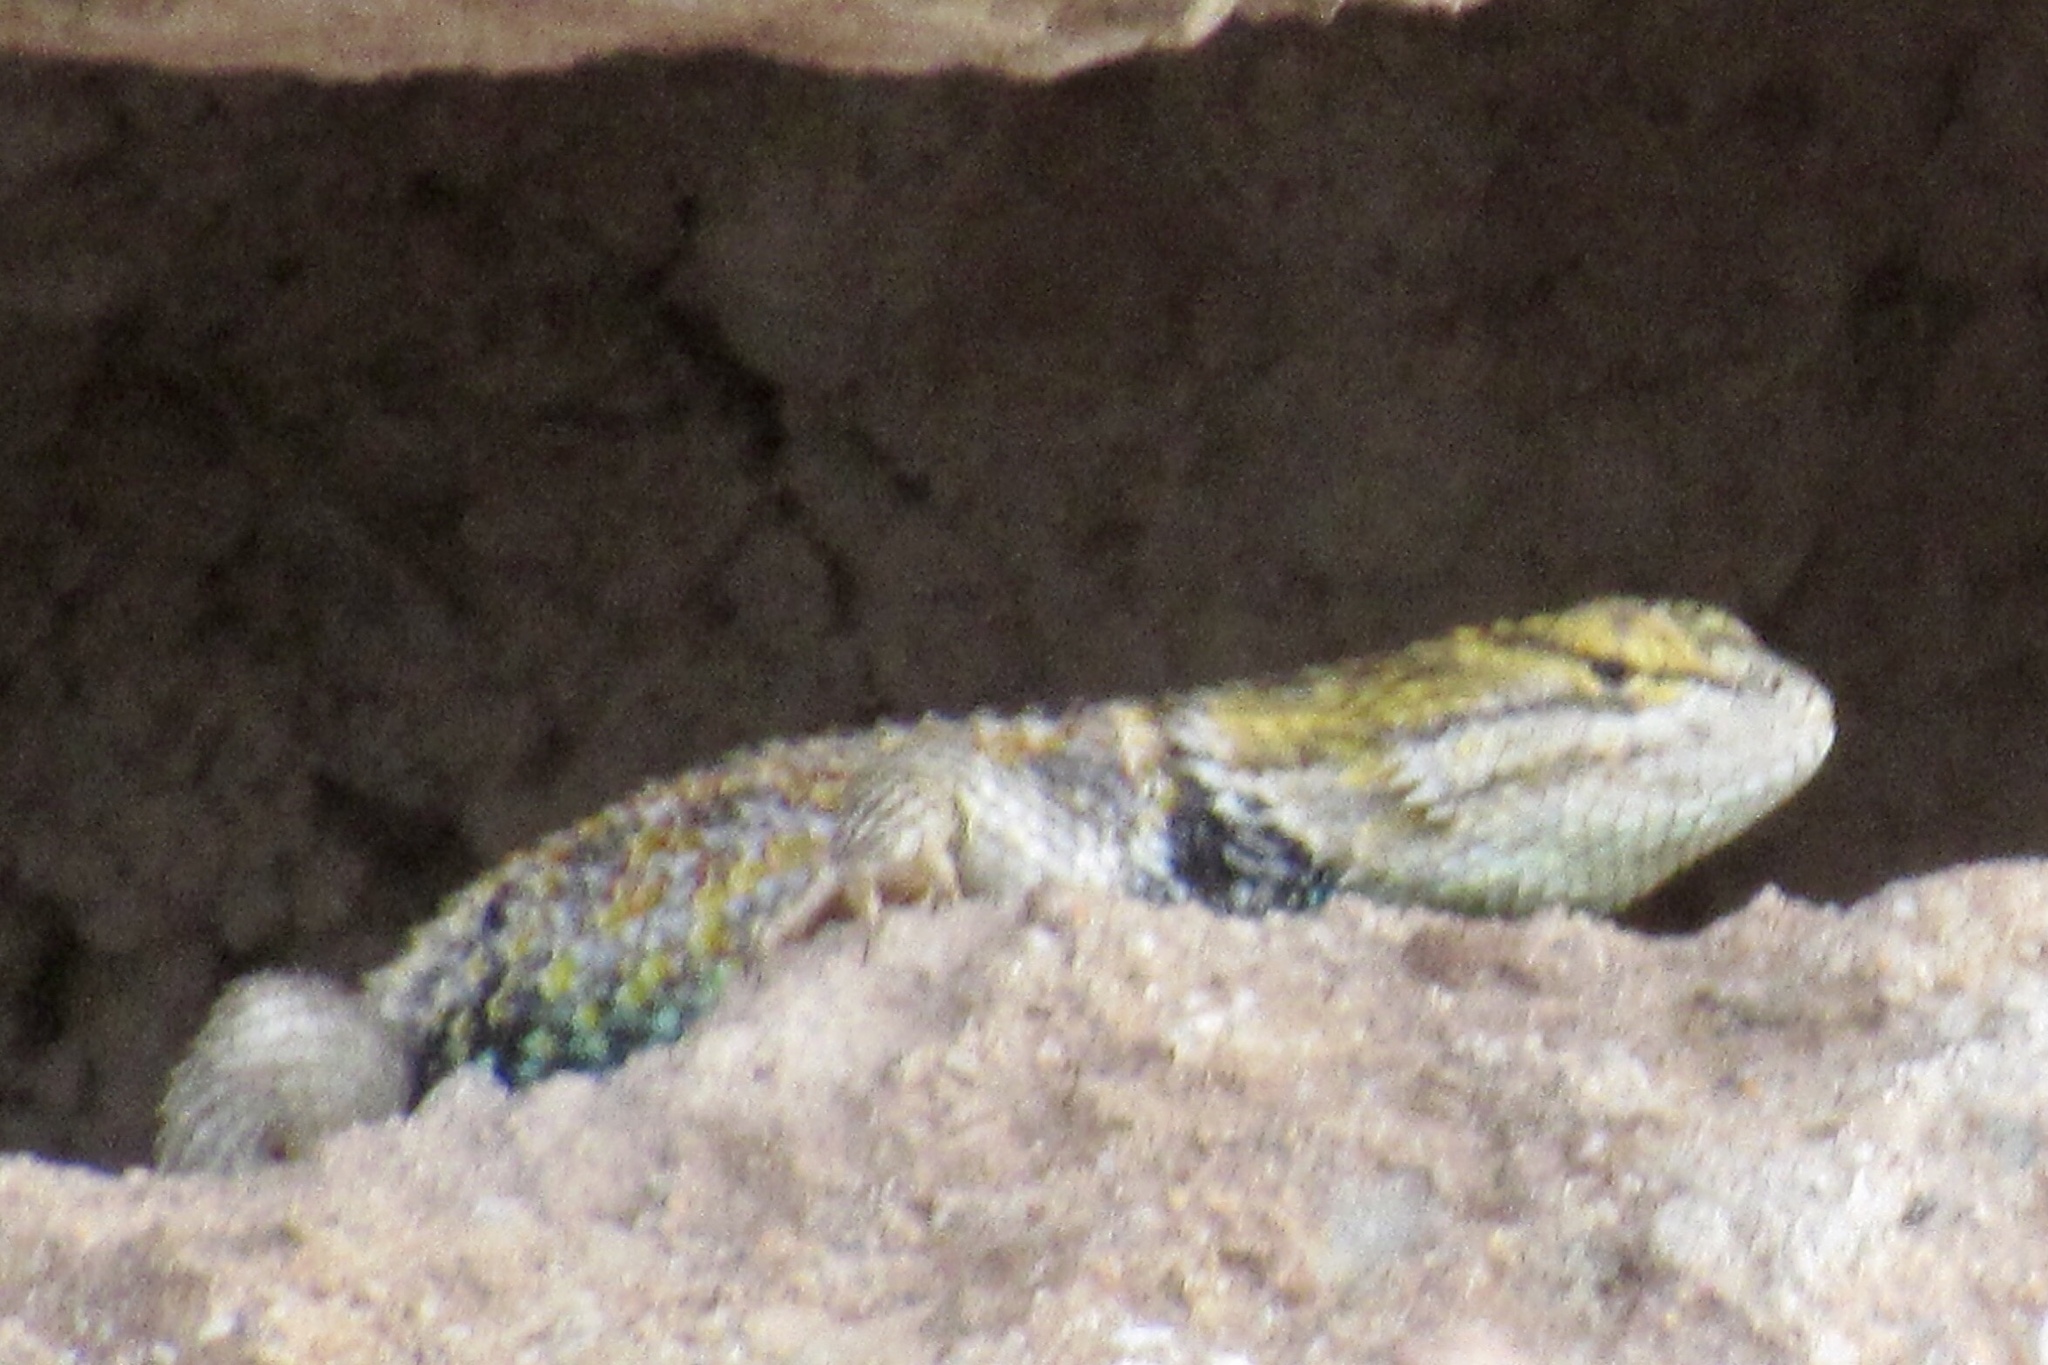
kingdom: Animalia
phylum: Chordata
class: Squamata
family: Phrynosomatidae
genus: Sceloporus
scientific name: Sceloporus magister
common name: Desert spiny lizard
